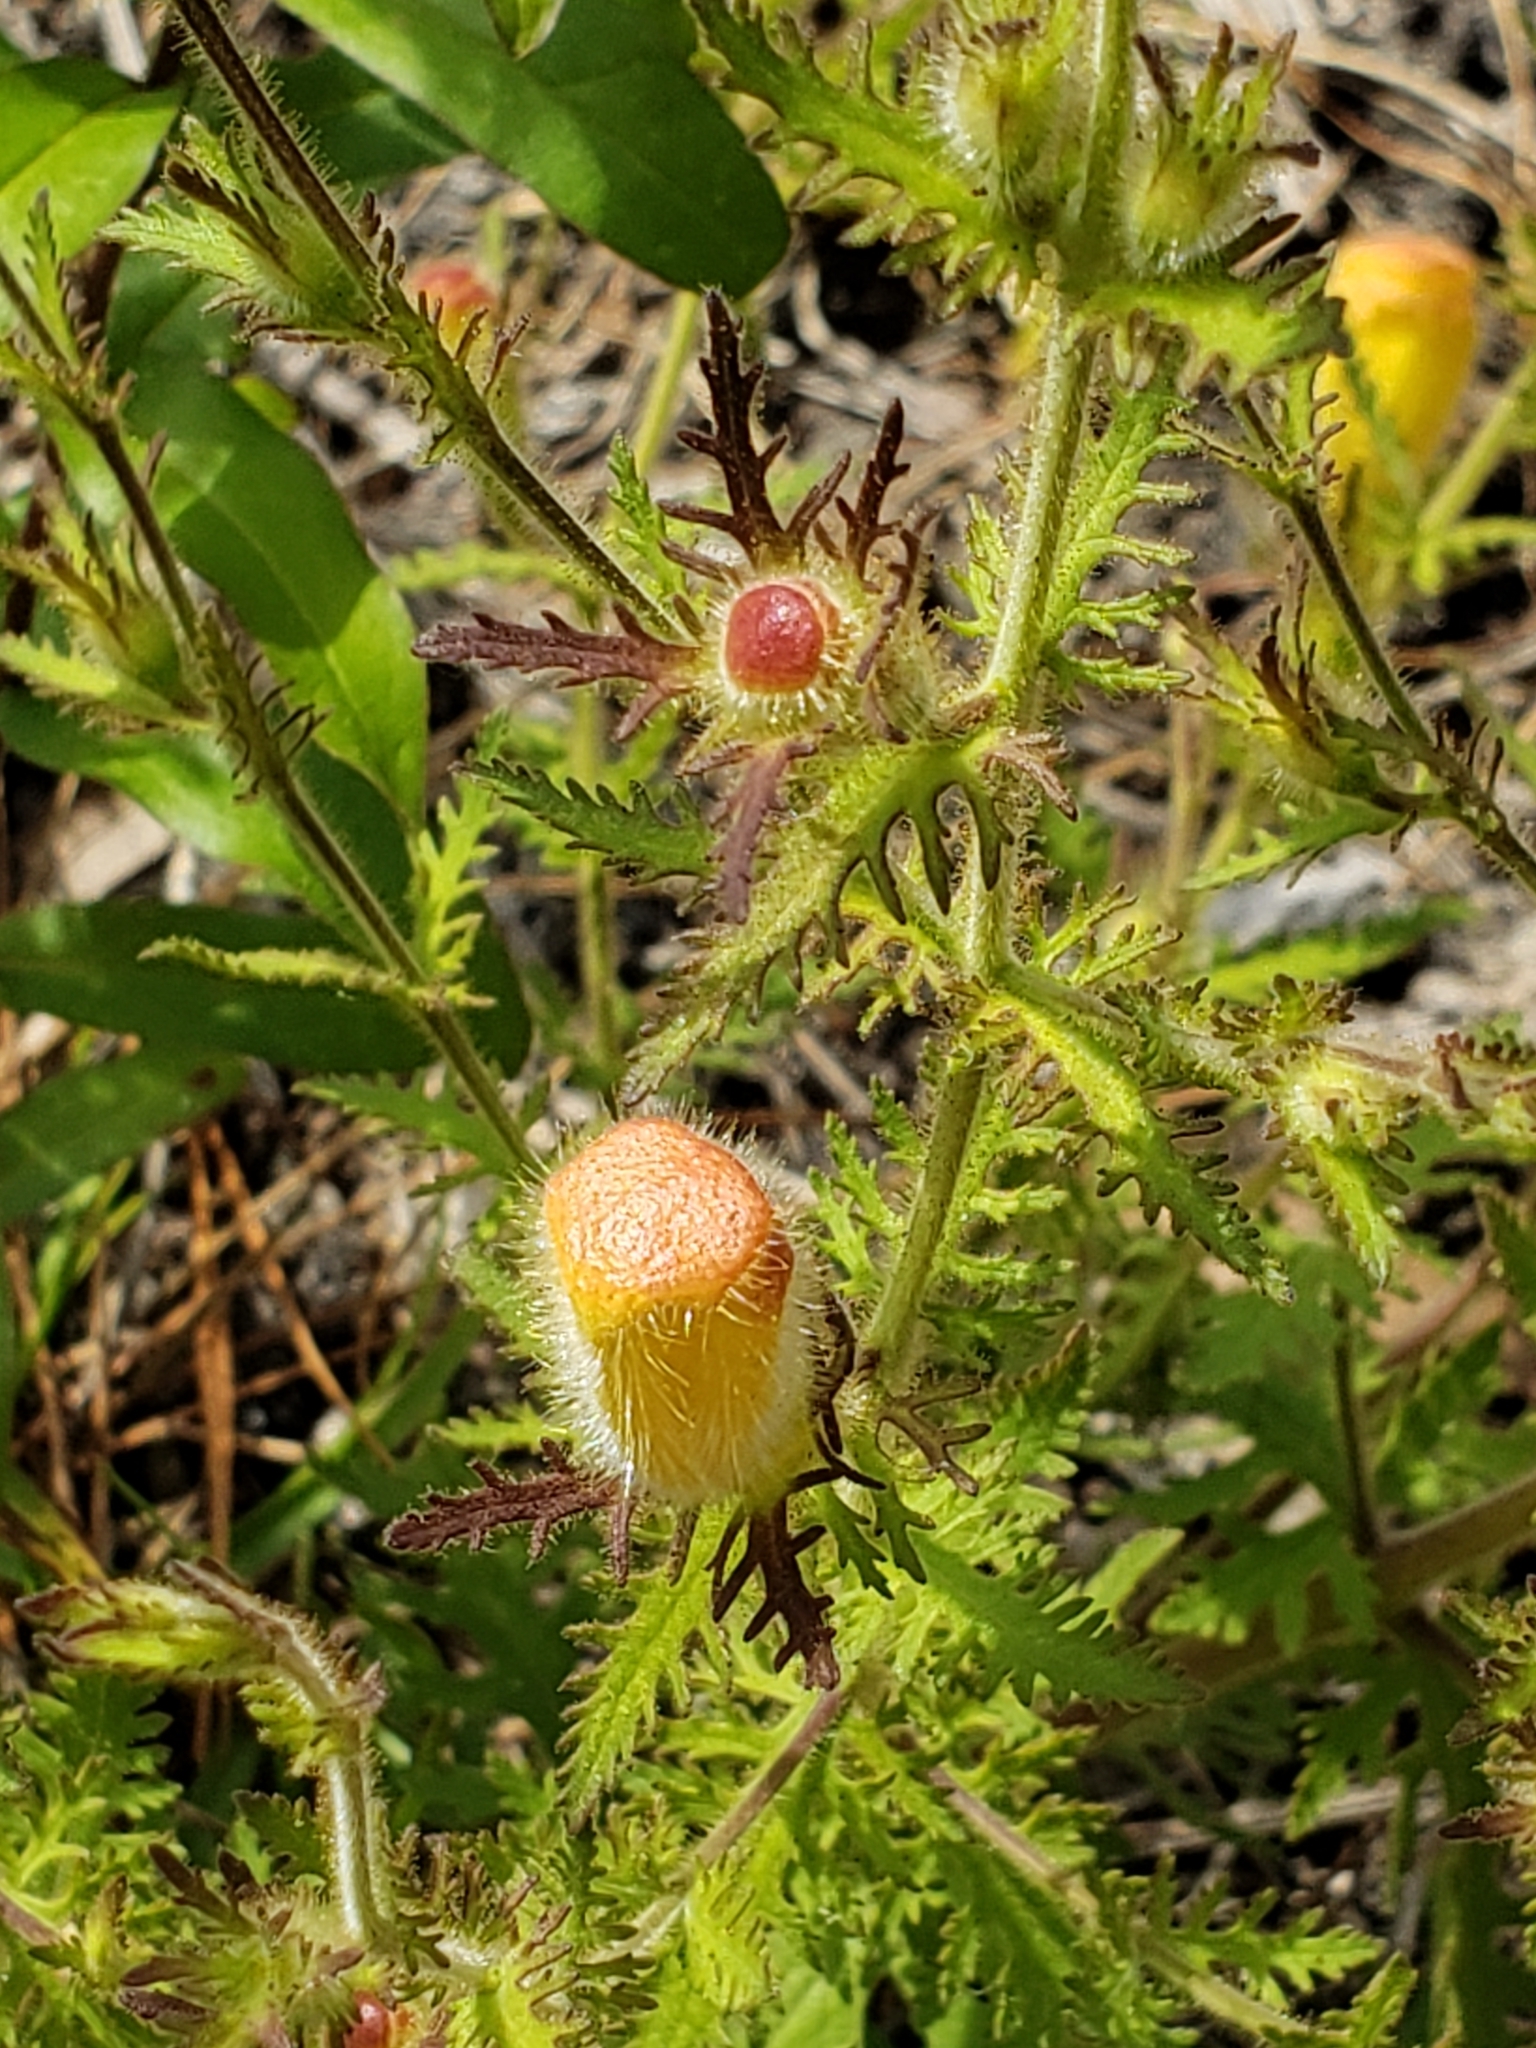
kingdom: Plantae
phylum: Tracheophyta
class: Magnoliopsida
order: Lamiales
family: Orobanchaceae
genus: Aureolaria
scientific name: Aureolaria pectinata
